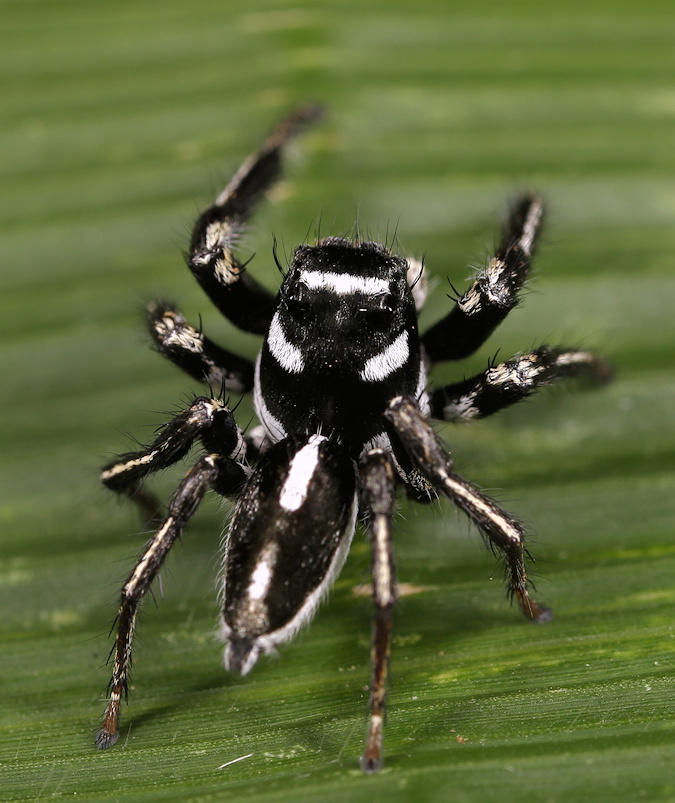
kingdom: Animalia
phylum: Arthropoda
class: Arachnida
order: Araneae
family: Salticidae
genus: Hyllus
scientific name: Hyllus argyrotoxus
